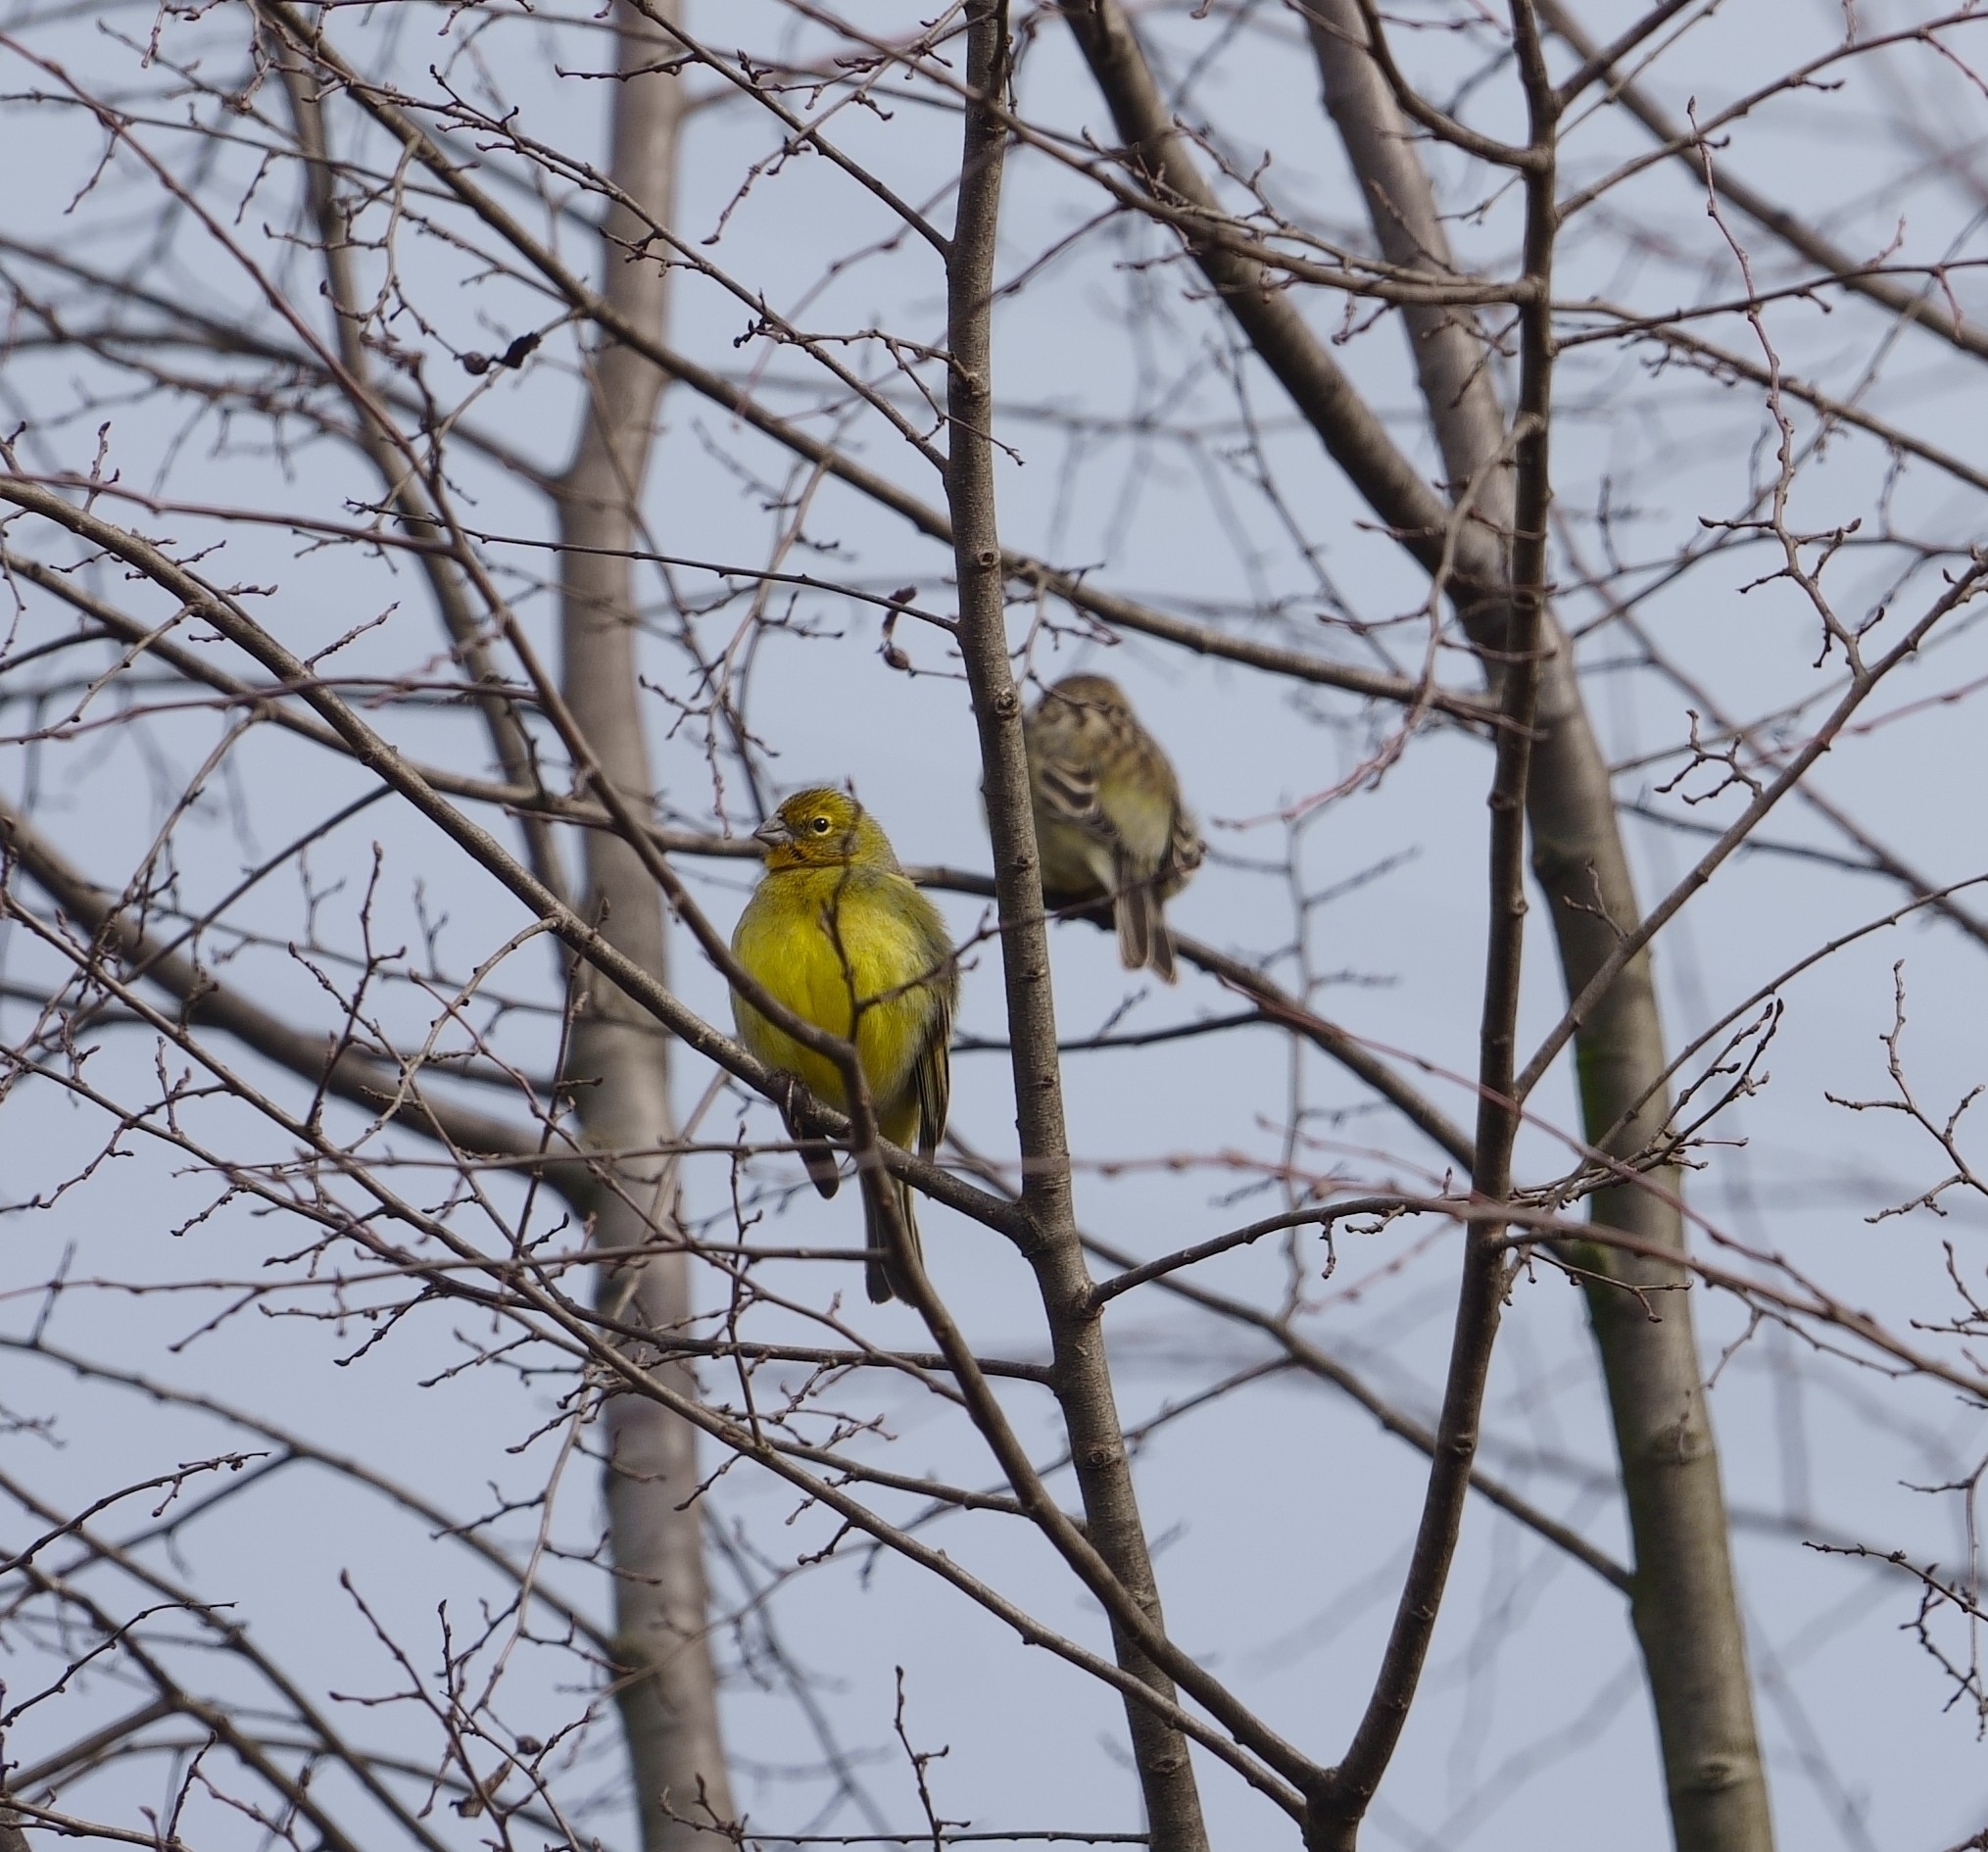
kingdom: Animalia
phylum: Chordata
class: Aves
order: Passeriformes
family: Thraupidae
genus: Sicalis
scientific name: Sicalis luteola
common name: Grassland yellow-finch
